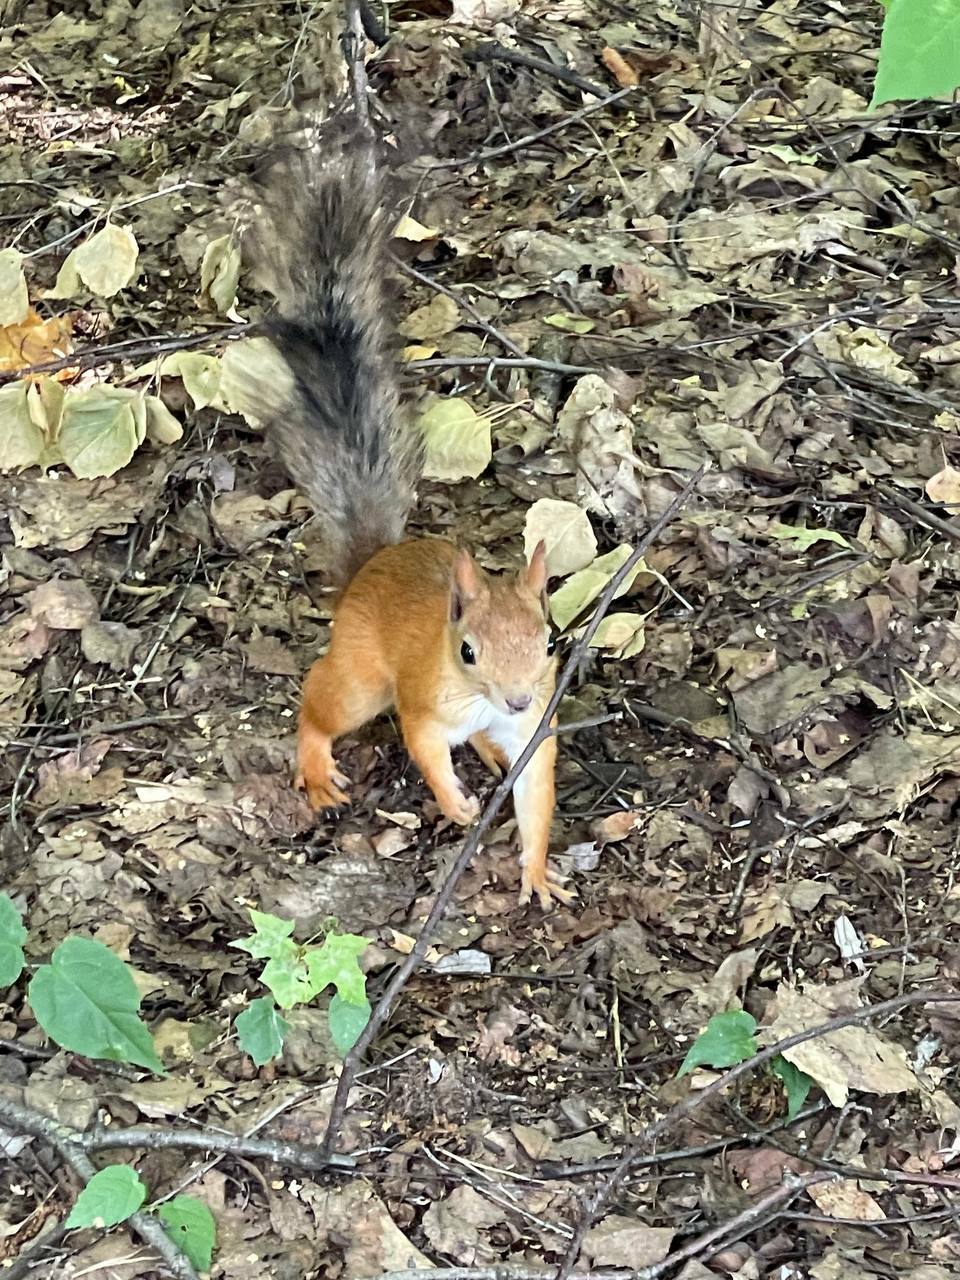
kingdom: Animalia
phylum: Chordata
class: Mammalia
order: Rodentia
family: Sciuridae
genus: Sciurus
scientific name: Sciurus vulgaris
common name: Eurasian red squirrel
